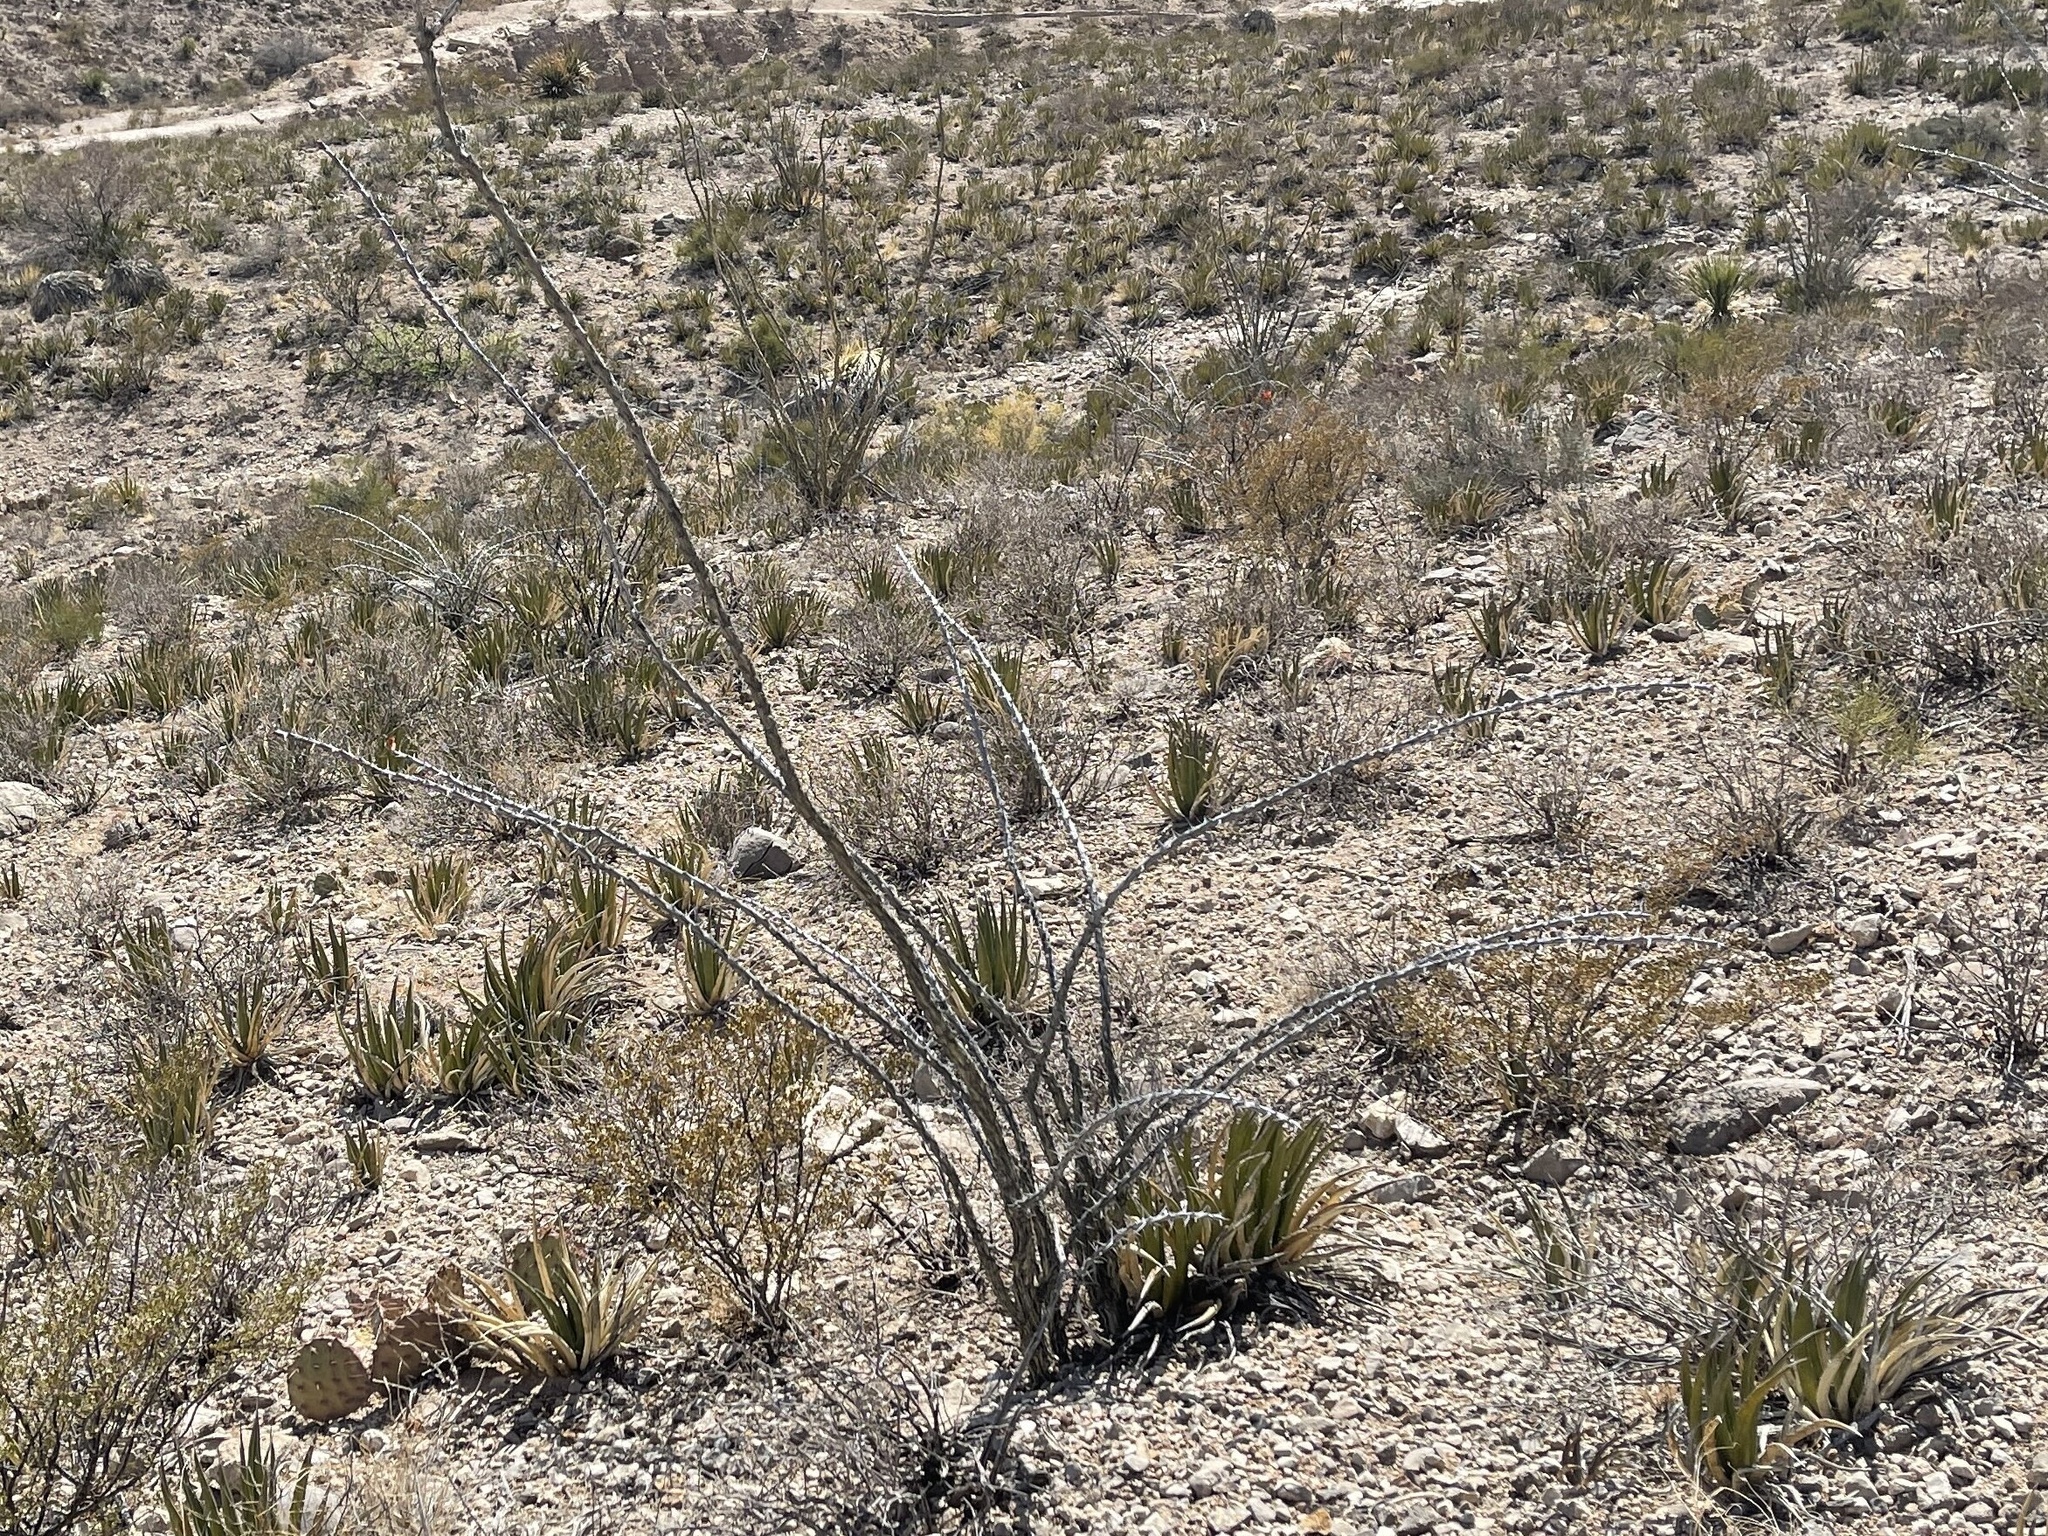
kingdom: Plantae
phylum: Tracheophyta
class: Magnoliopsida
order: Ericales
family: Fouquieriaceae
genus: Fouquieria
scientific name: Fouquieria splendens
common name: Vine-cactus
